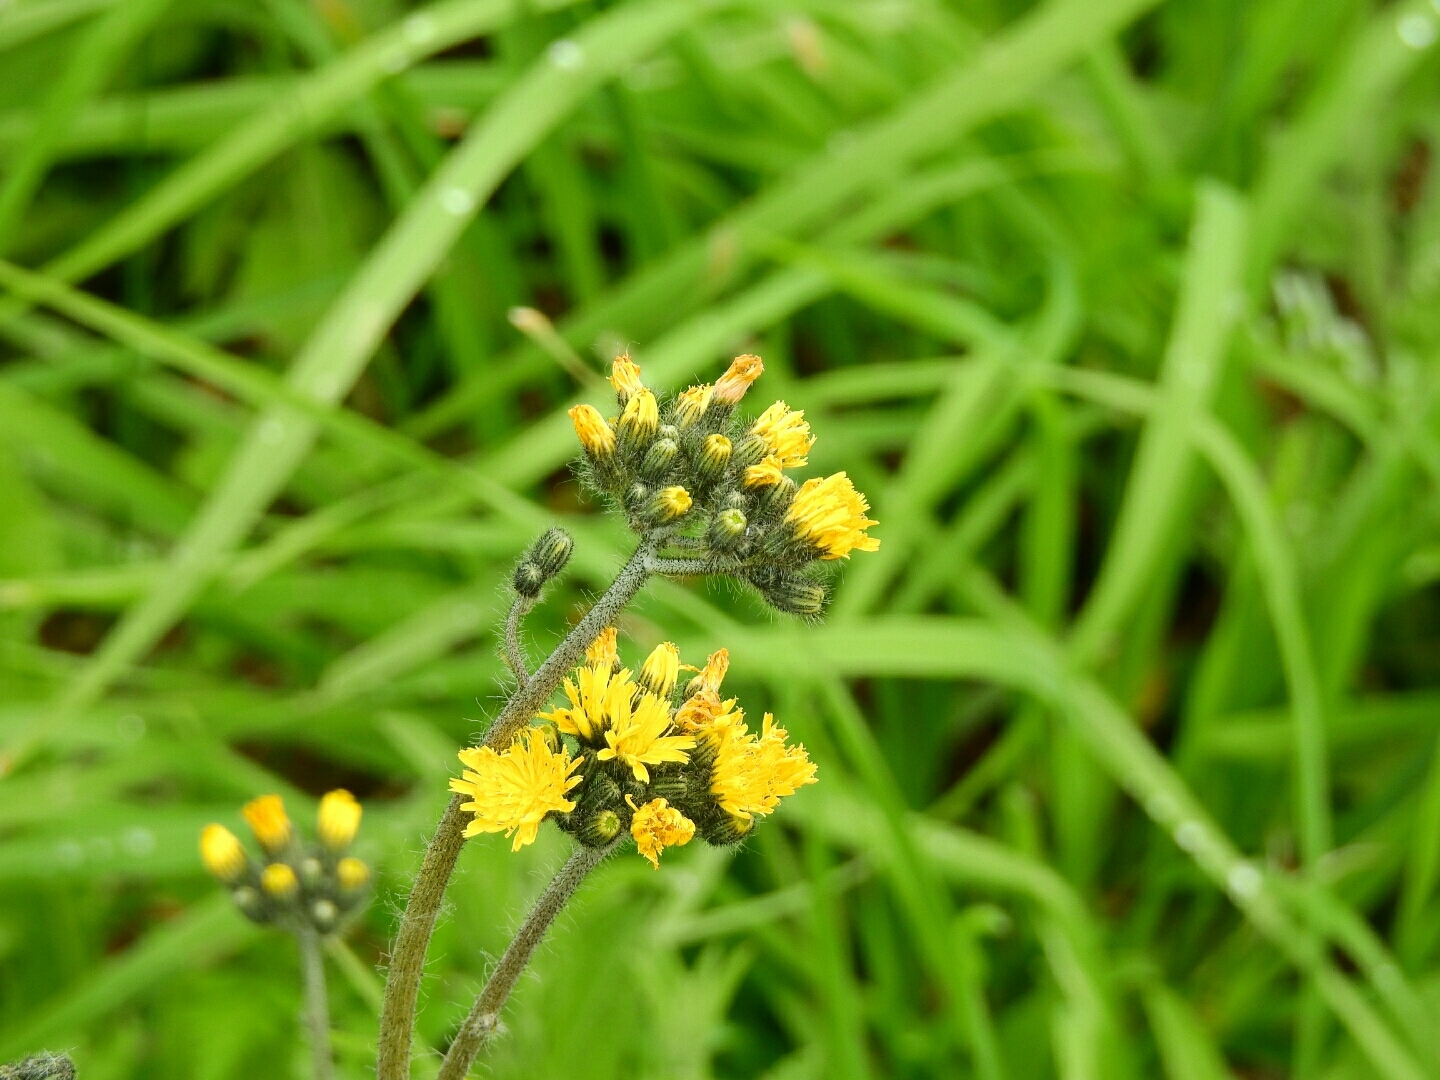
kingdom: Plantae
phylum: Tracheophyta
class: Magnoliopsida
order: Asterales
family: Asteraceae
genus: Pilosella
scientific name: Pilosella caespitosa
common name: Yellow fox-and-cubs
